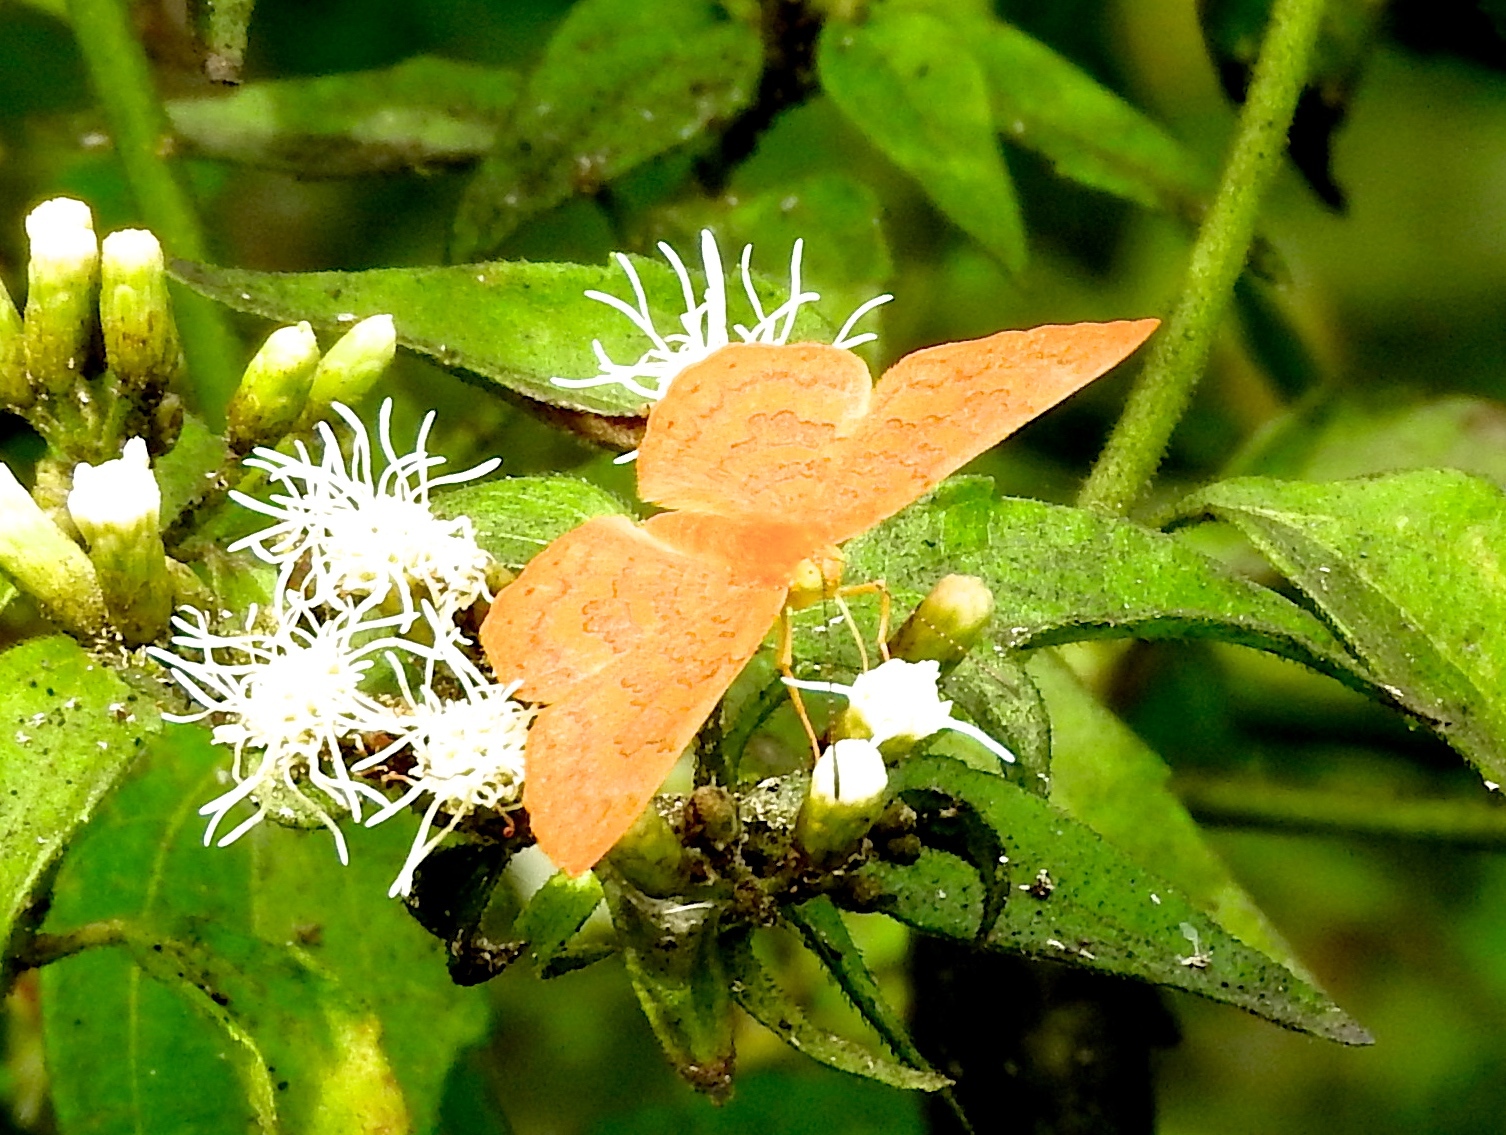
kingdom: Animalia
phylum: Arthropoda
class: Insecta
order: Lepidoptera
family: Lycaenidae
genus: Emesis
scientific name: Emesis vulpina
